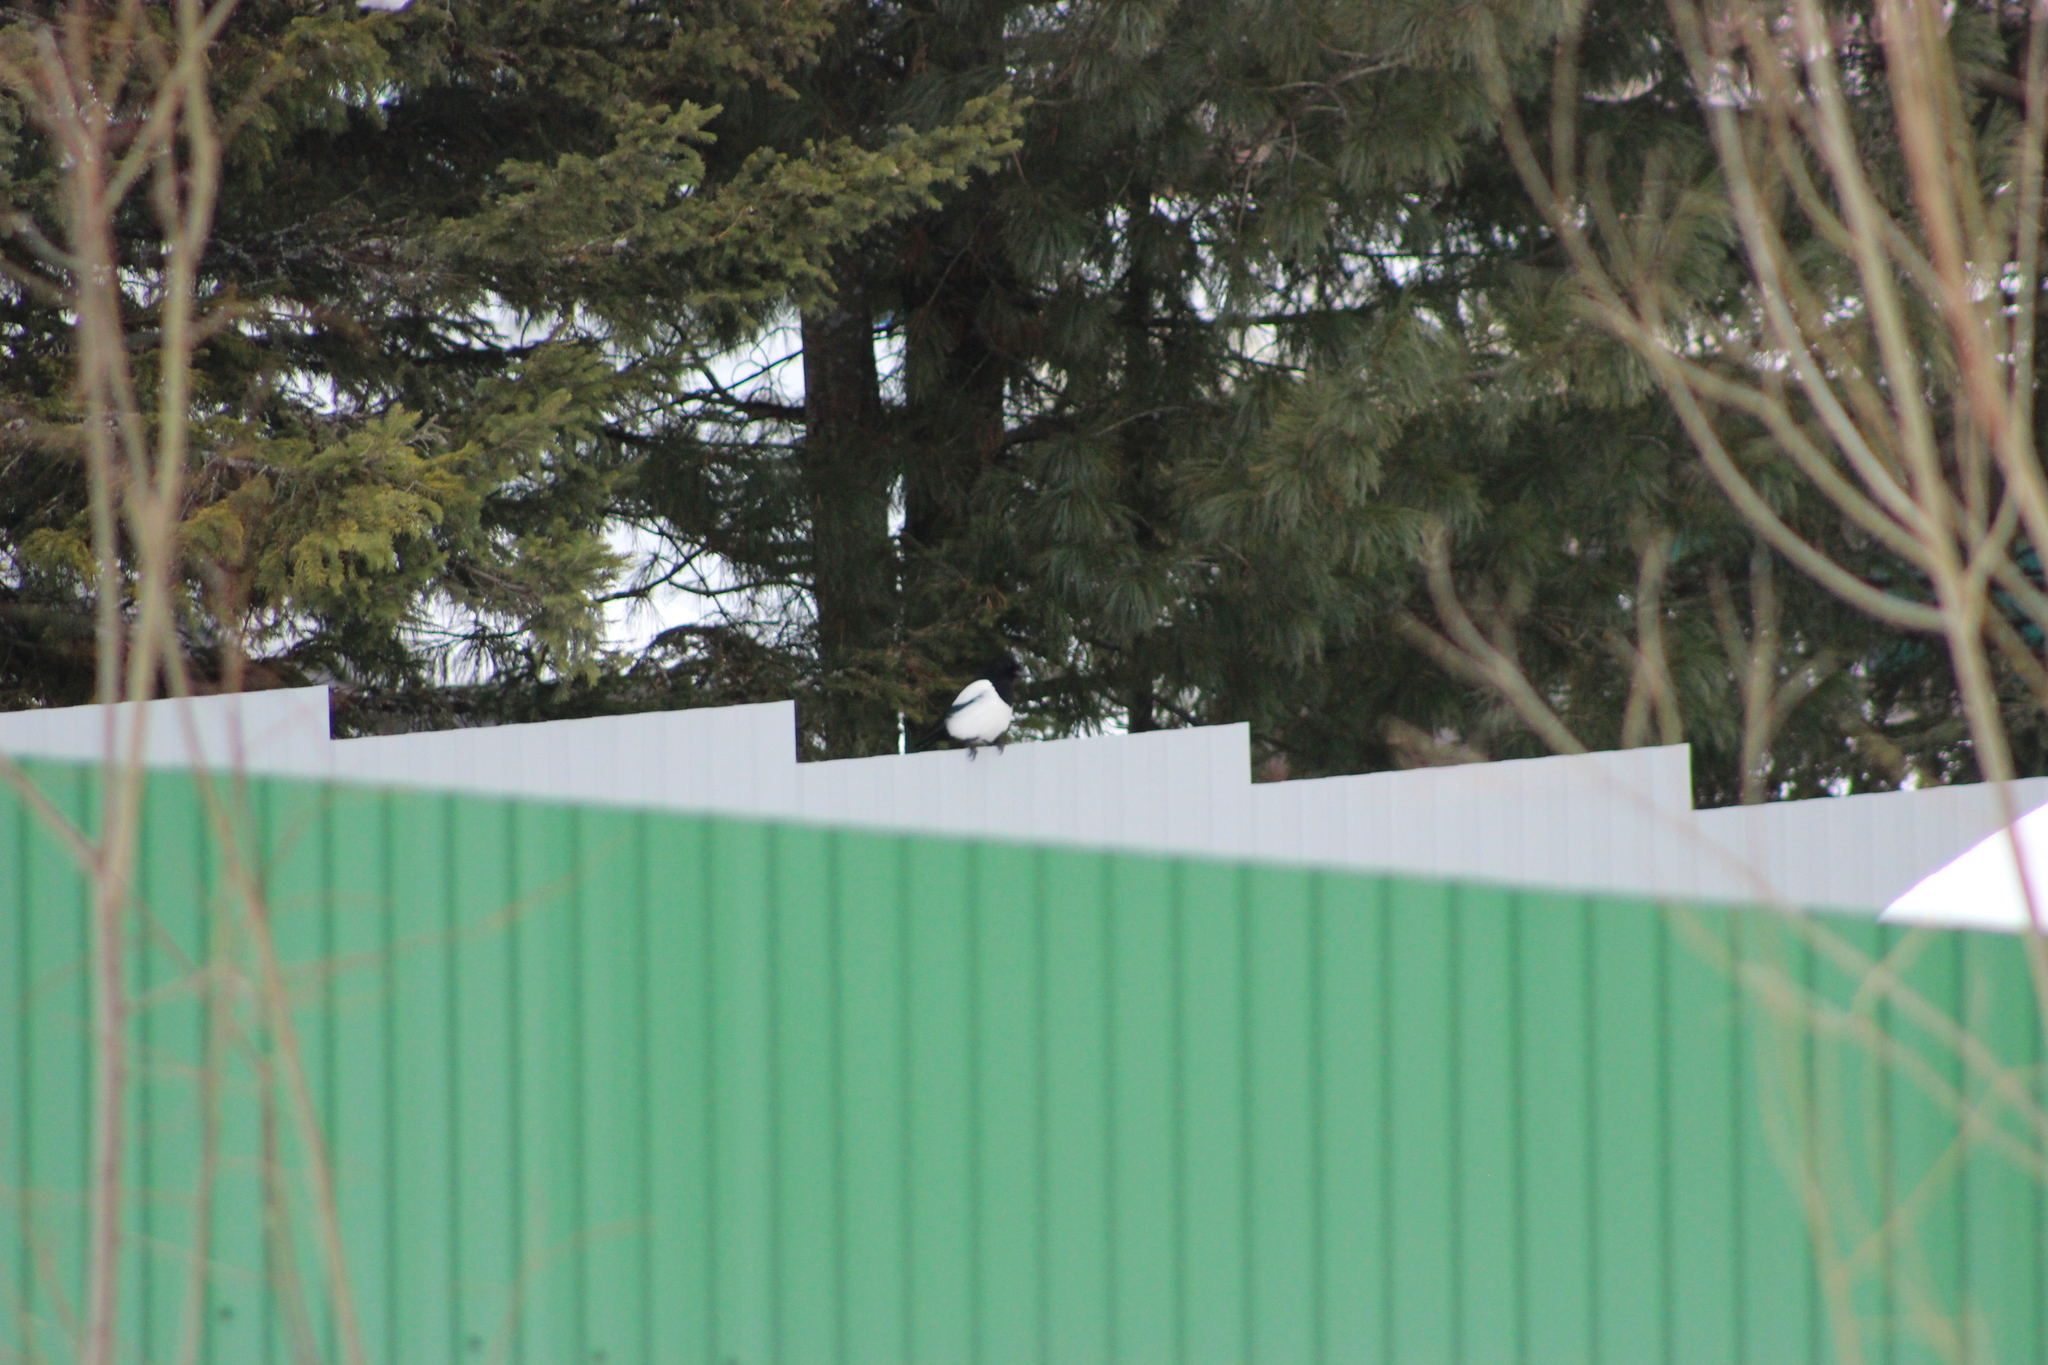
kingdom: Animalia
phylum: Chordata
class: Aves
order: Passeriformes
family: Corvidae
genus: Pica
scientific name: Pica pica
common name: Eurasian magpie
